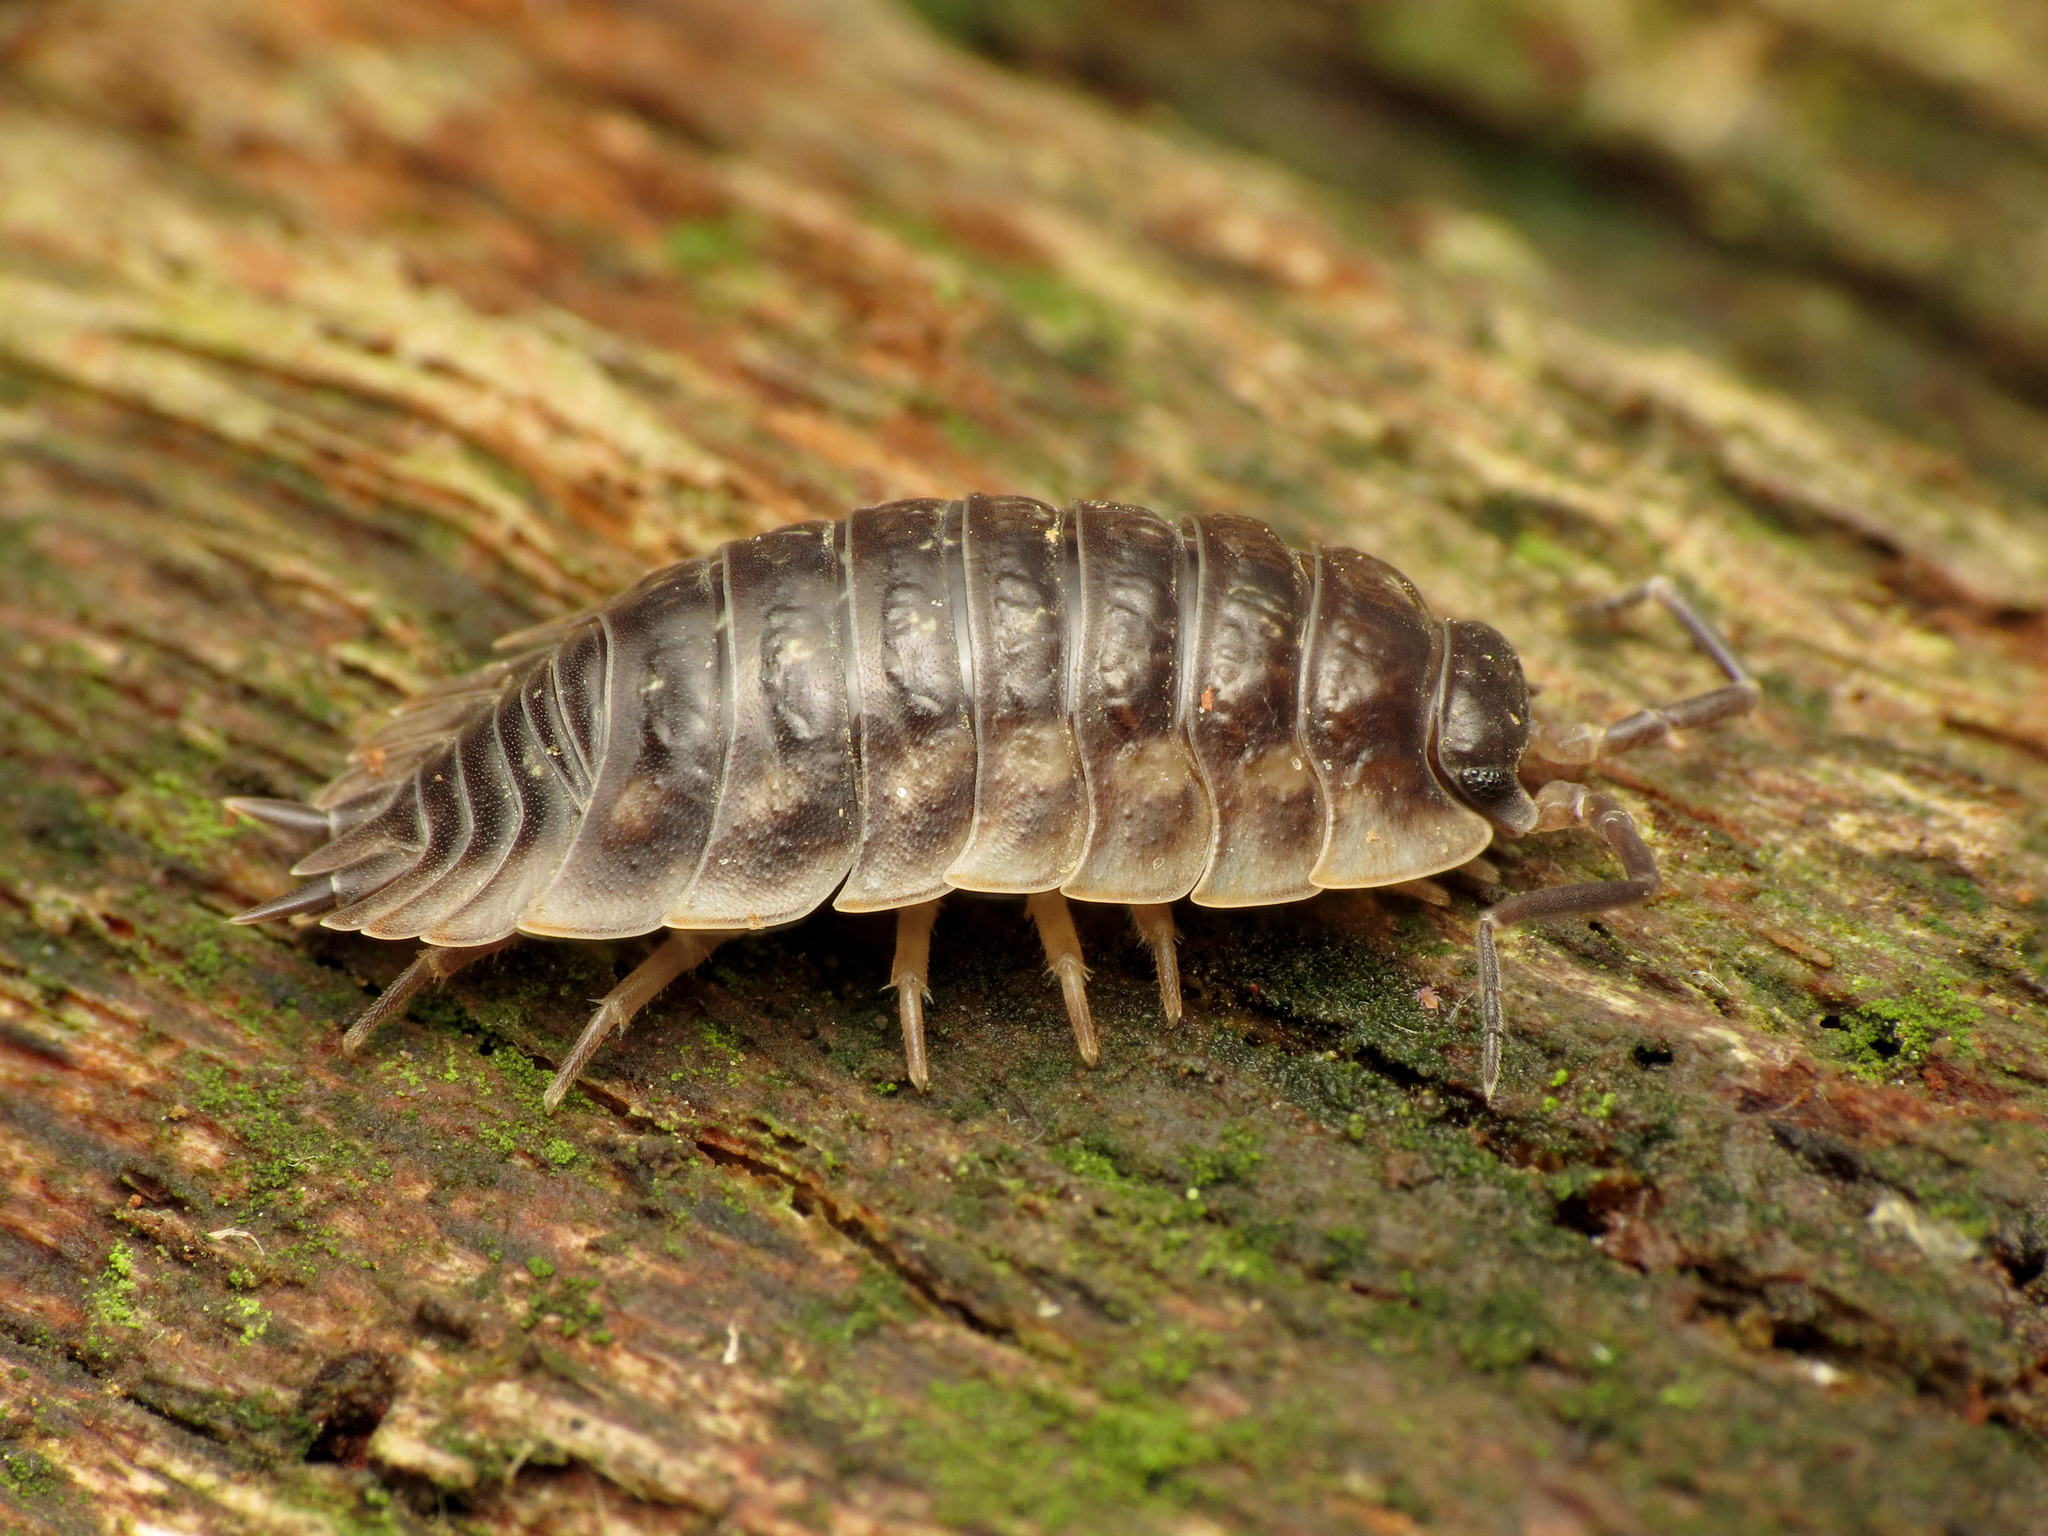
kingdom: Animalia
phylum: Arthropoda
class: Malacostraca
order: Isopoda
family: Oniscidae
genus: Oniscus
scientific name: Oniscus asellus
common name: Common shiny woodlouse
